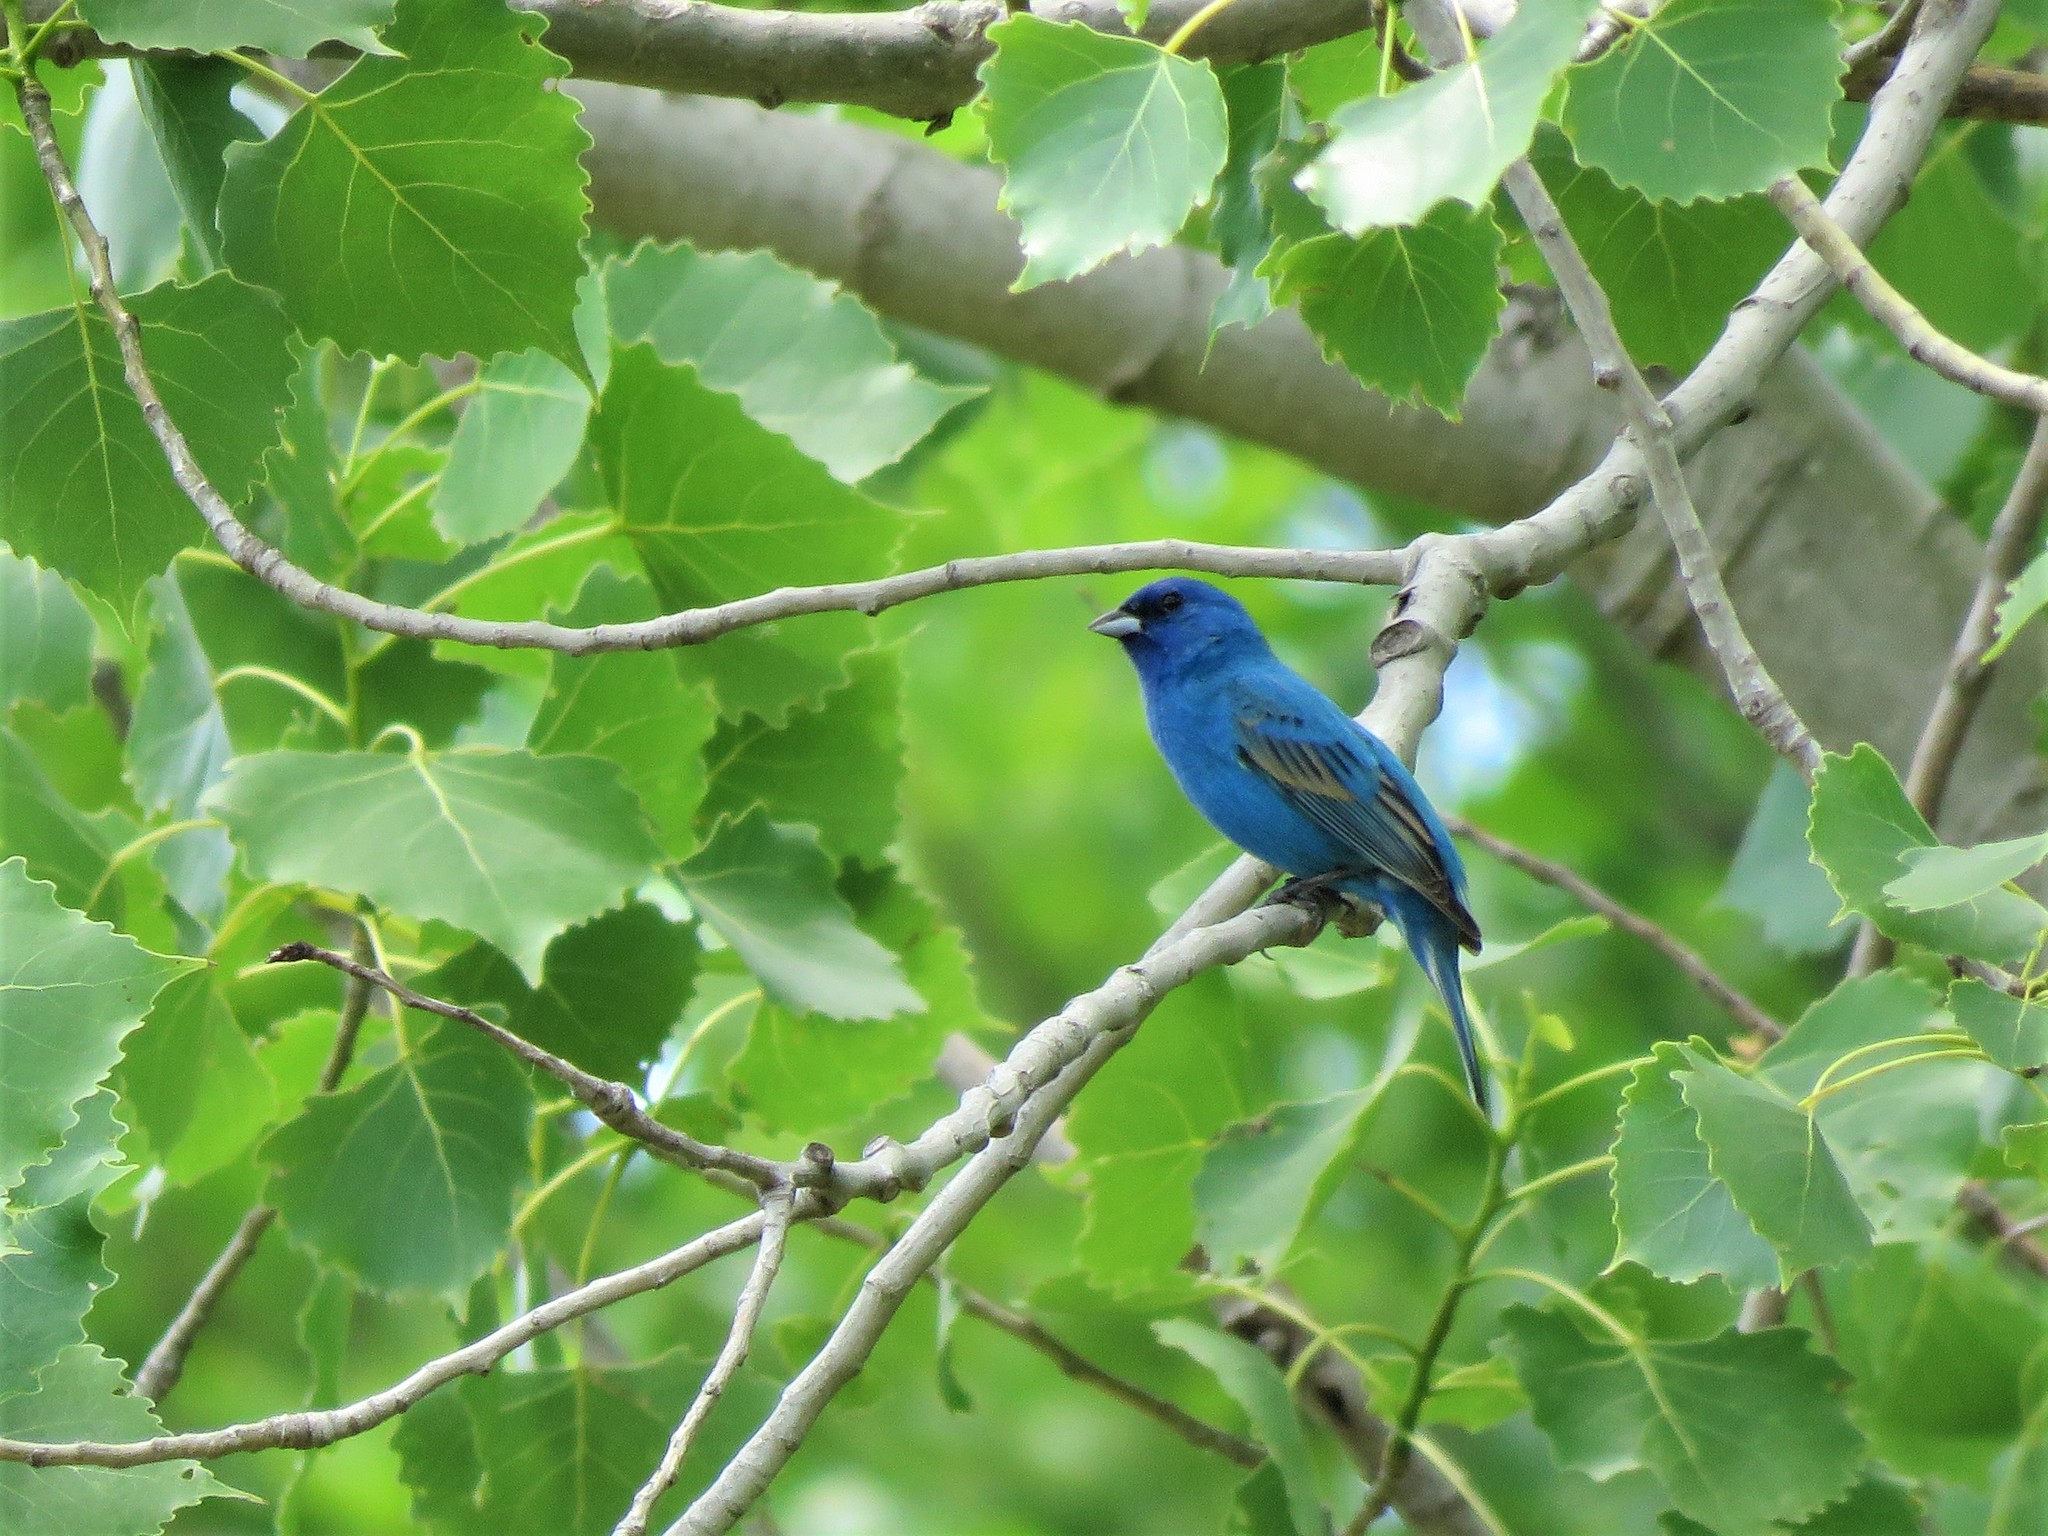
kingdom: Animalia
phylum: Chordata
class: Aves
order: Passeriformes
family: Cardinalidae
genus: Passerina
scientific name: Passerina cyanea
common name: Indigo bunting
